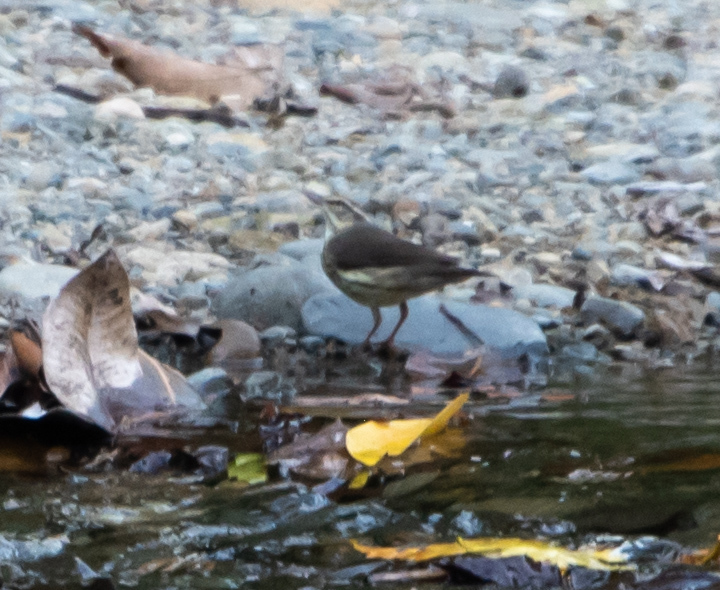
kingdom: Animalia
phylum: Chordata
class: Aves
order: Passeriformes
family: Parulidae
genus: Parkesia
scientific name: Parkesia noveboracensis
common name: Northern waterthrush
